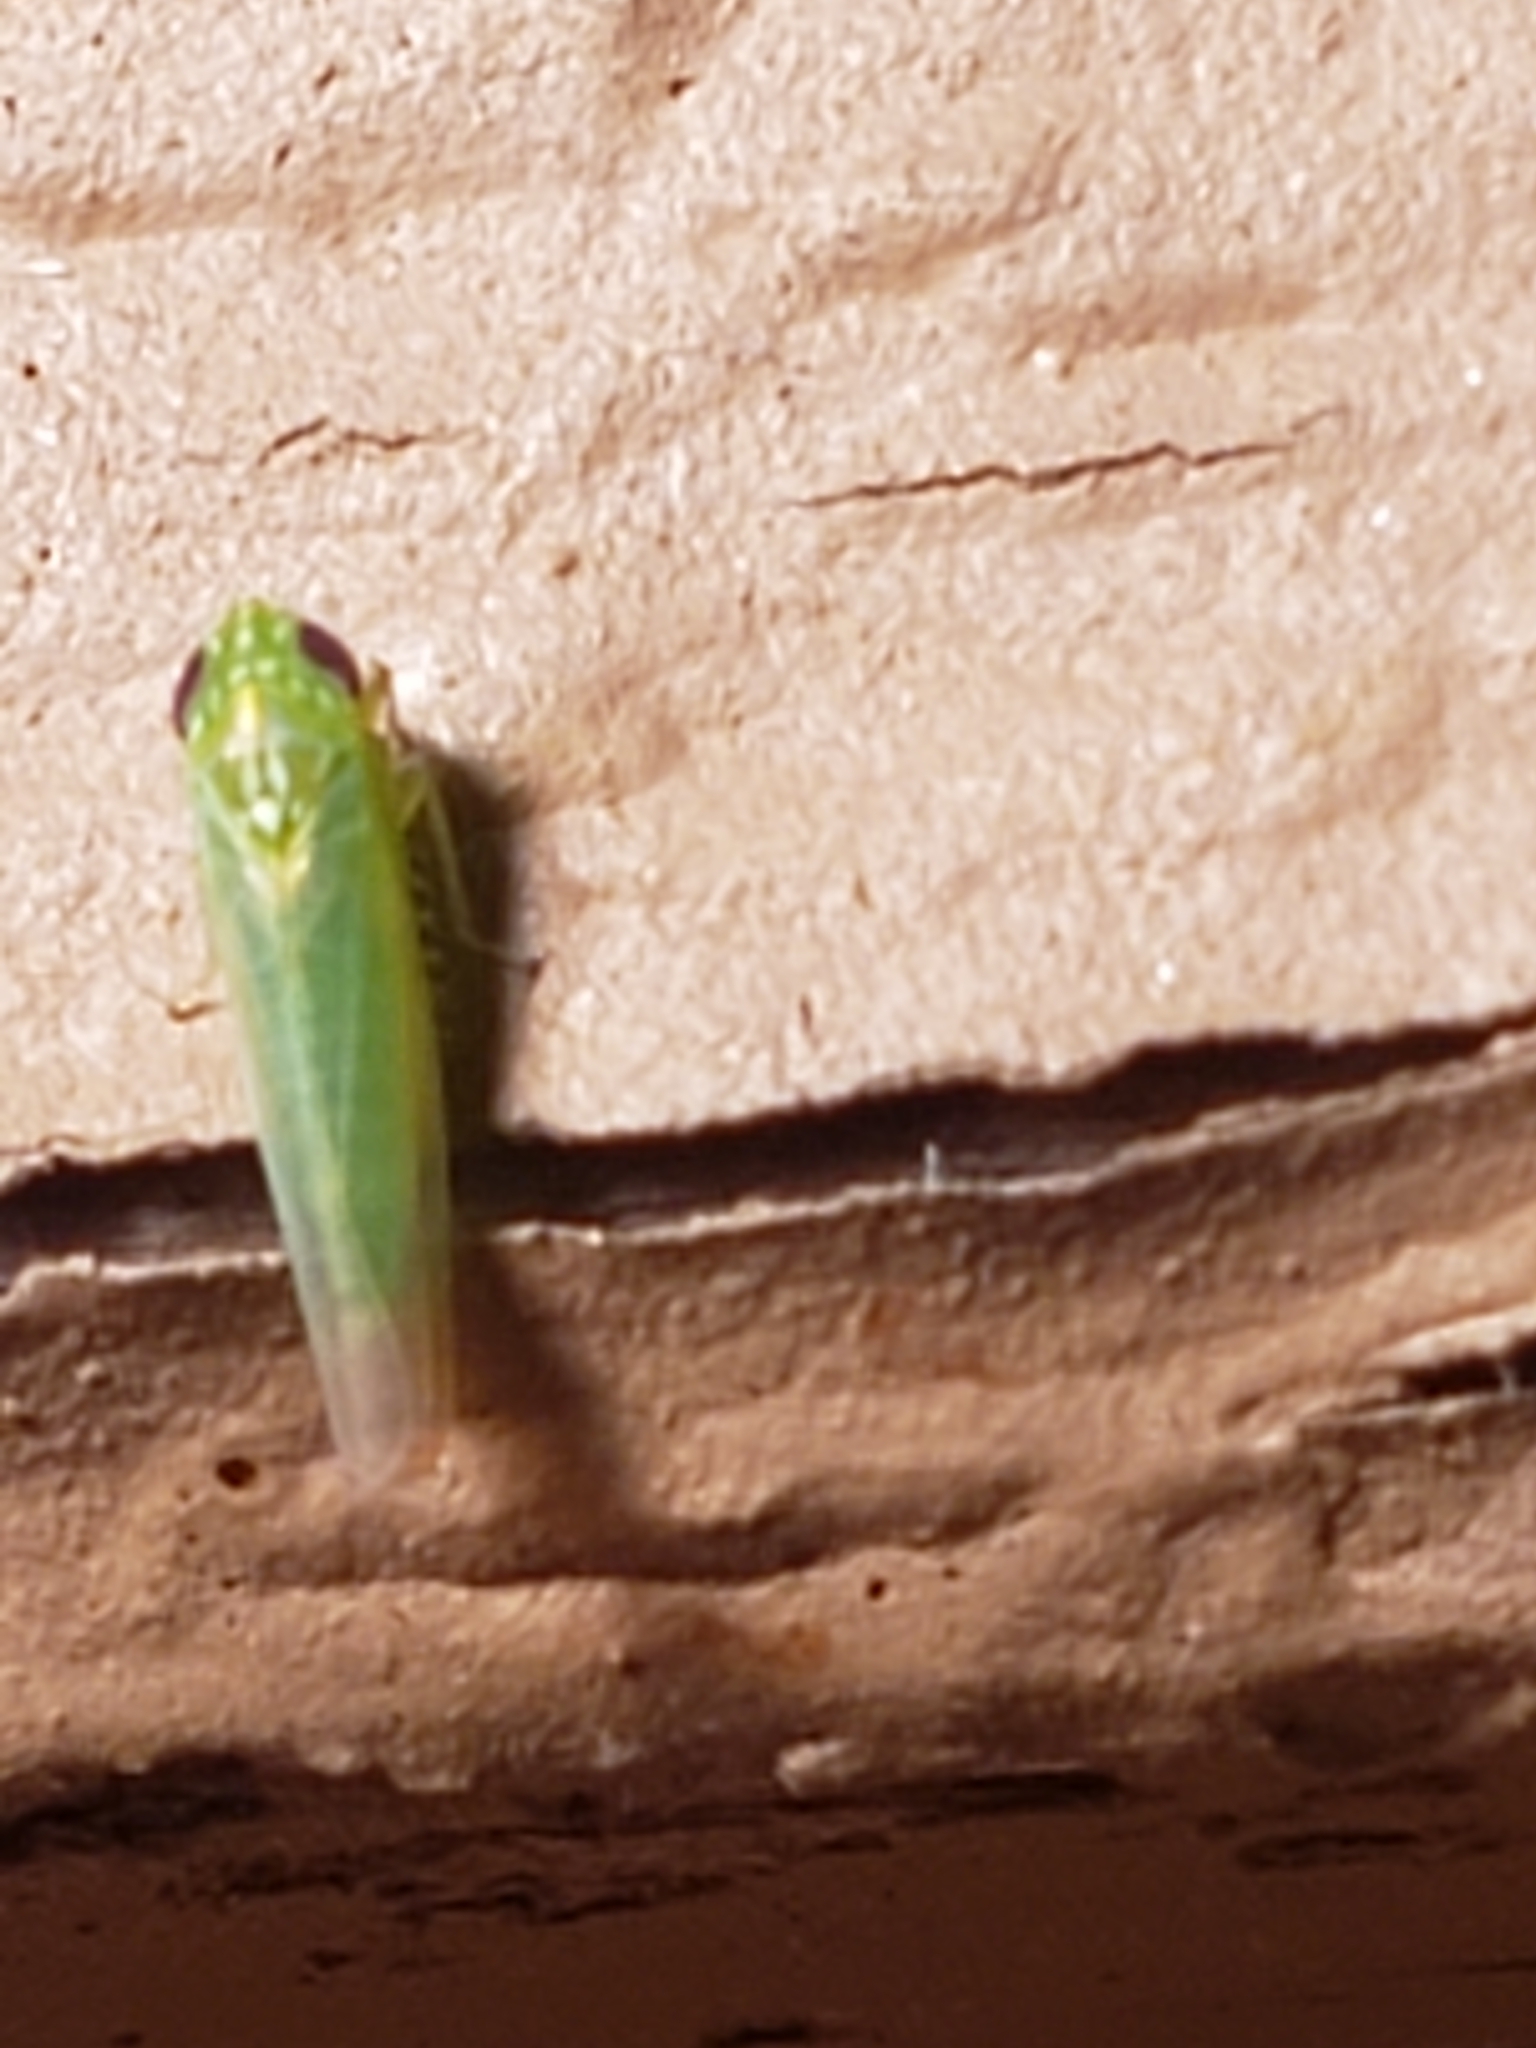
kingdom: Animalia
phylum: Arthropoda
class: Insecta
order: Hemiptera
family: Cicadellidae
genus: Empoasca
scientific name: Empoasca fabae
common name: Potato leafhopper
